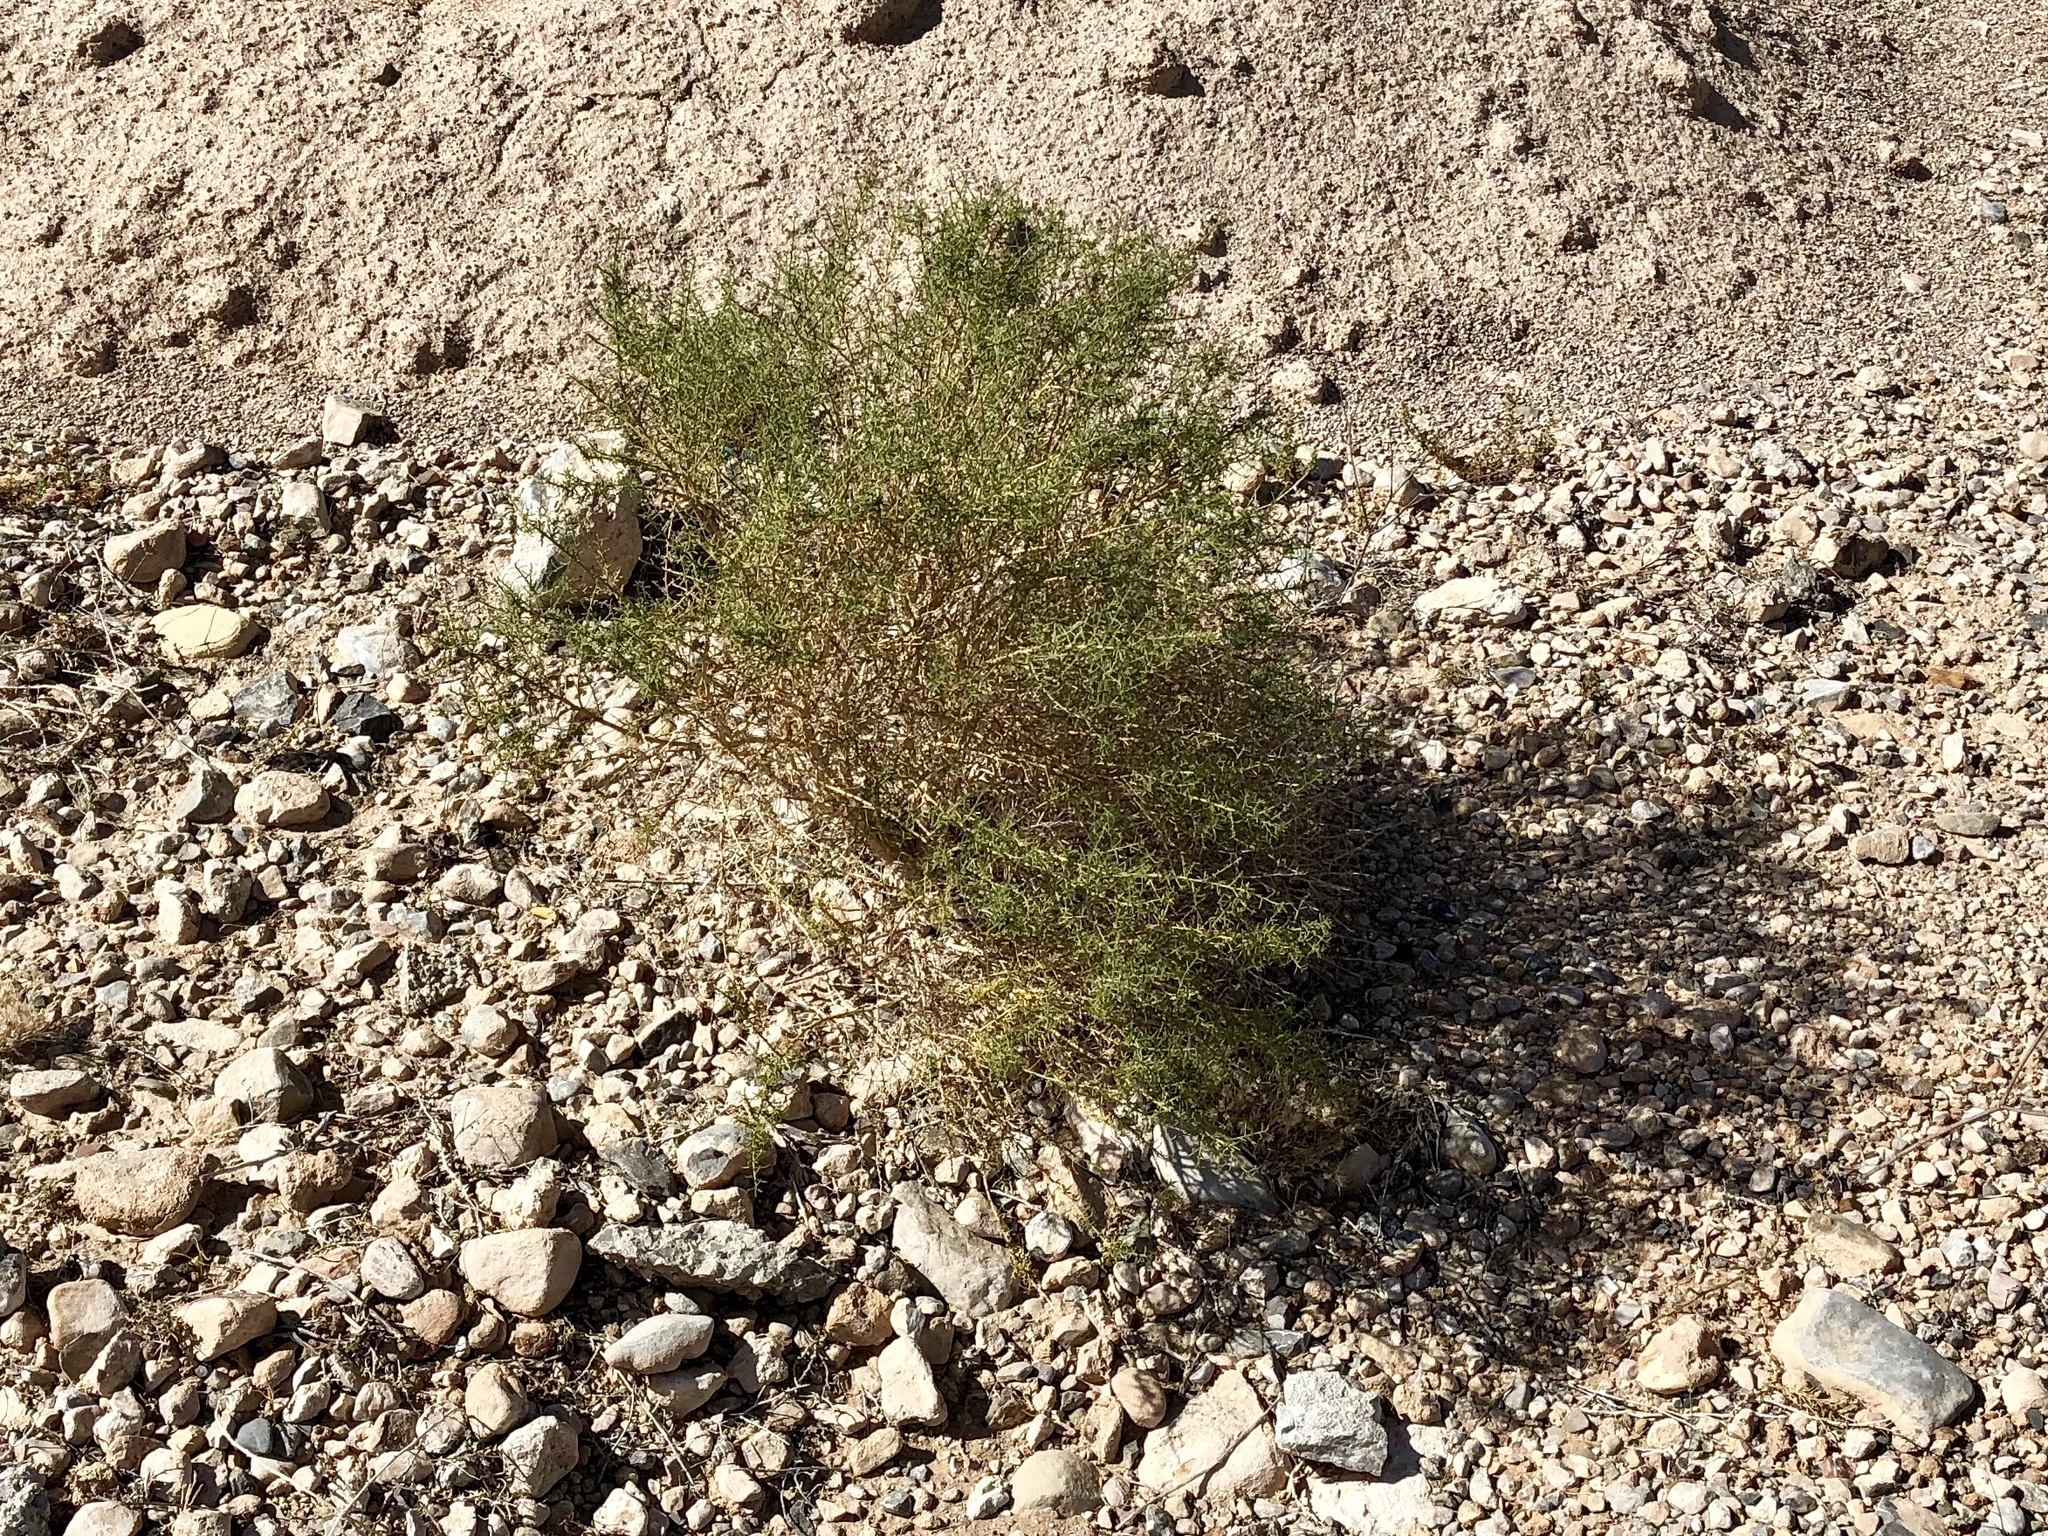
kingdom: Plantae
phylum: Tracheophyta
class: Magnoliopsida
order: Asterales
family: Asteraceae
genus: Ambrosia
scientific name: Ambrosia salsola
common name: Burrobrush
